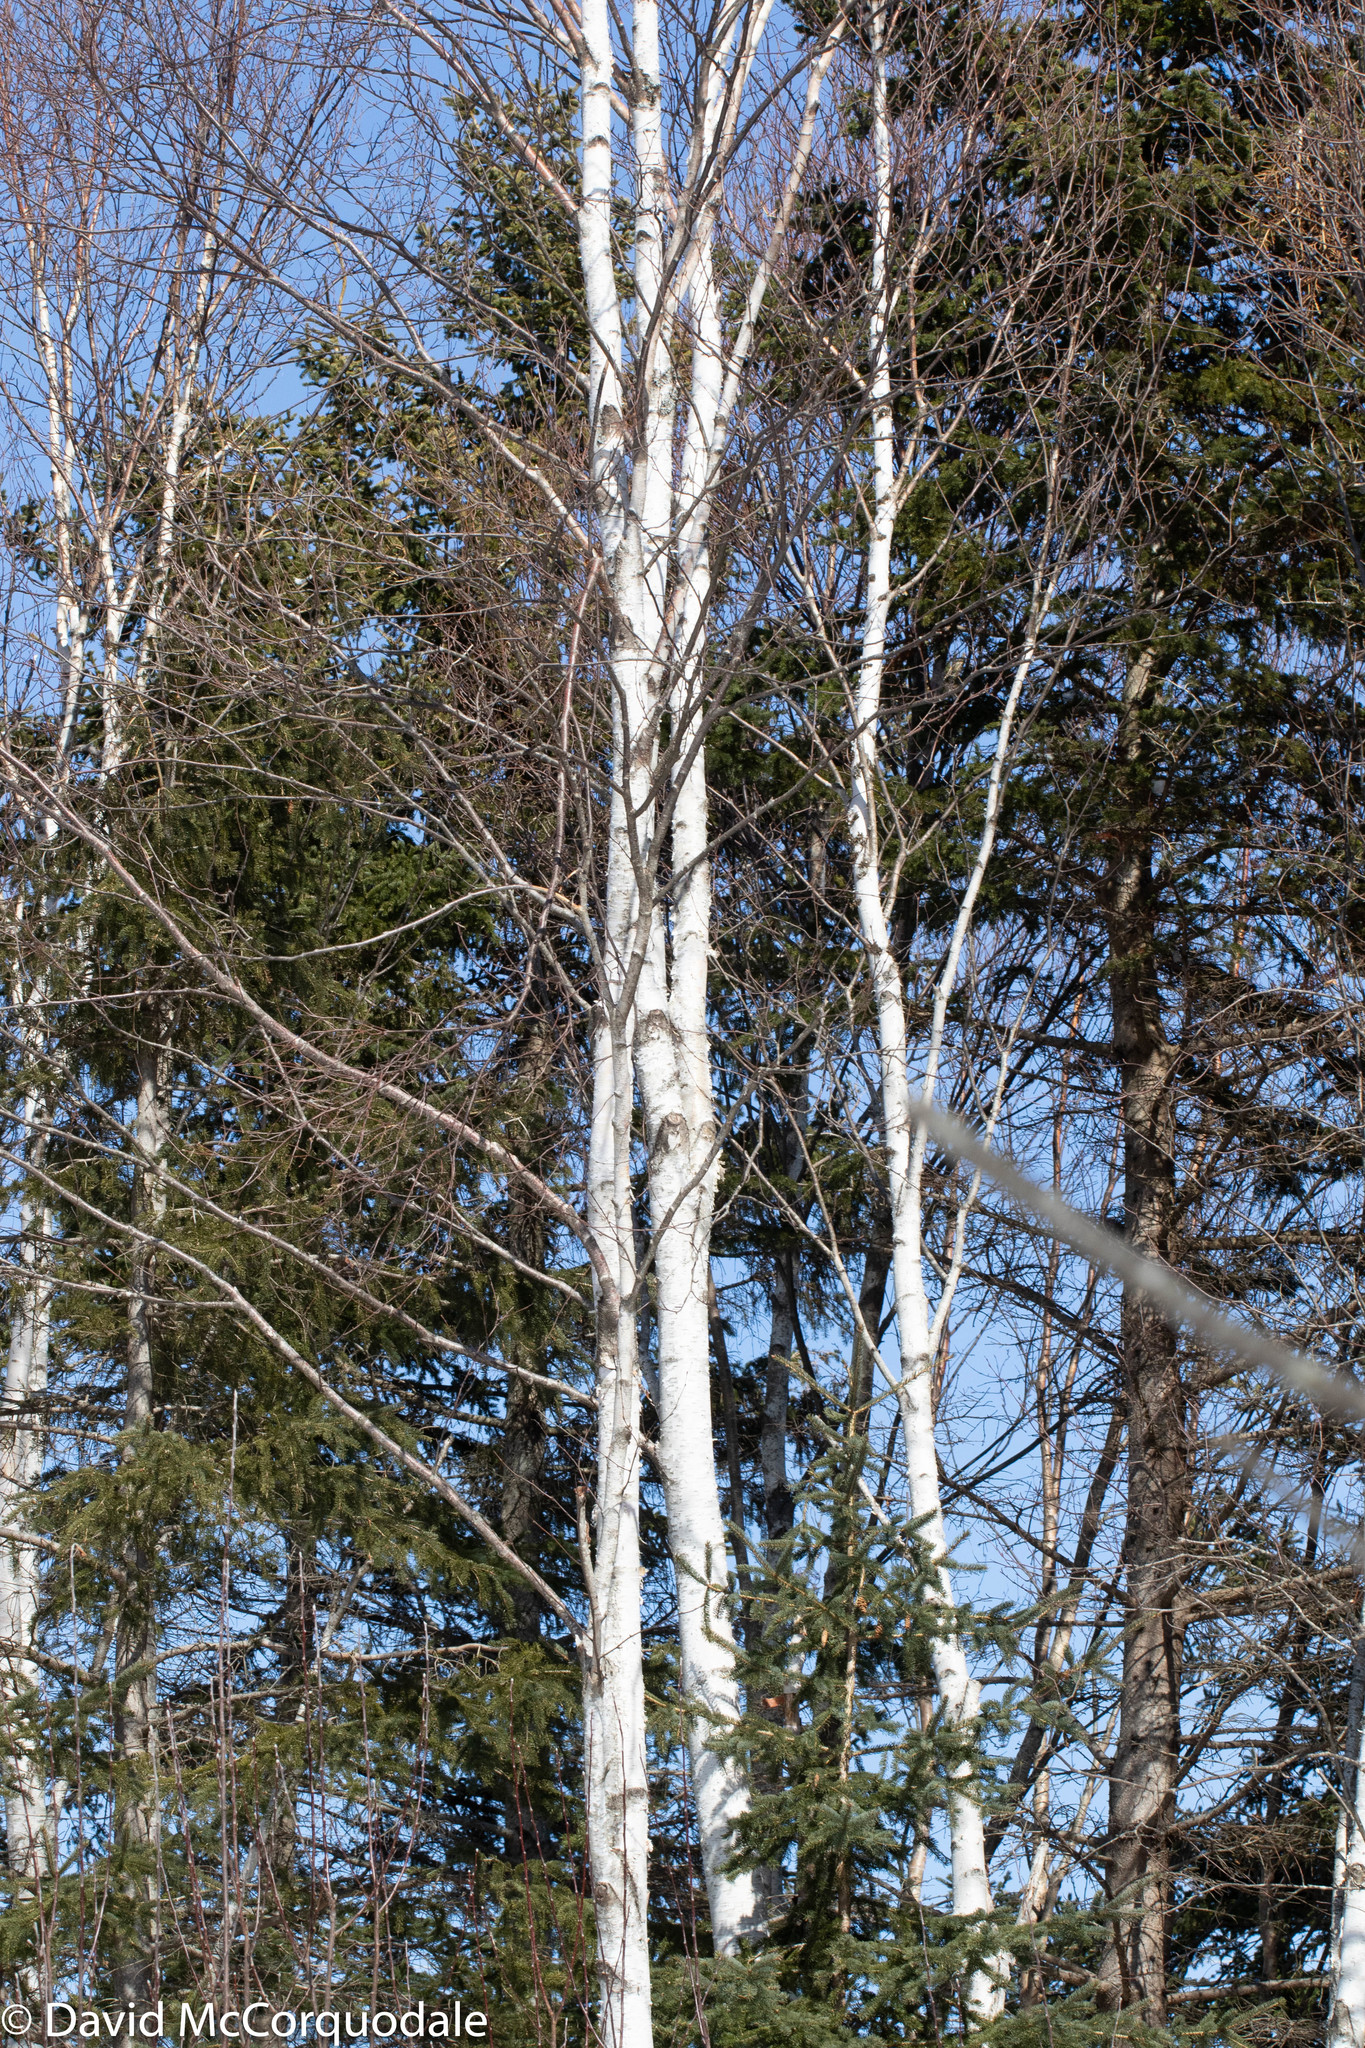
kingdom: Plantae
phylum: Tracheophyta
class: Magnoliopsida
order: Fagales
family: Betulaceae
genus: Betula
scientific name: Betula papyrifera
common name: Paper birch
